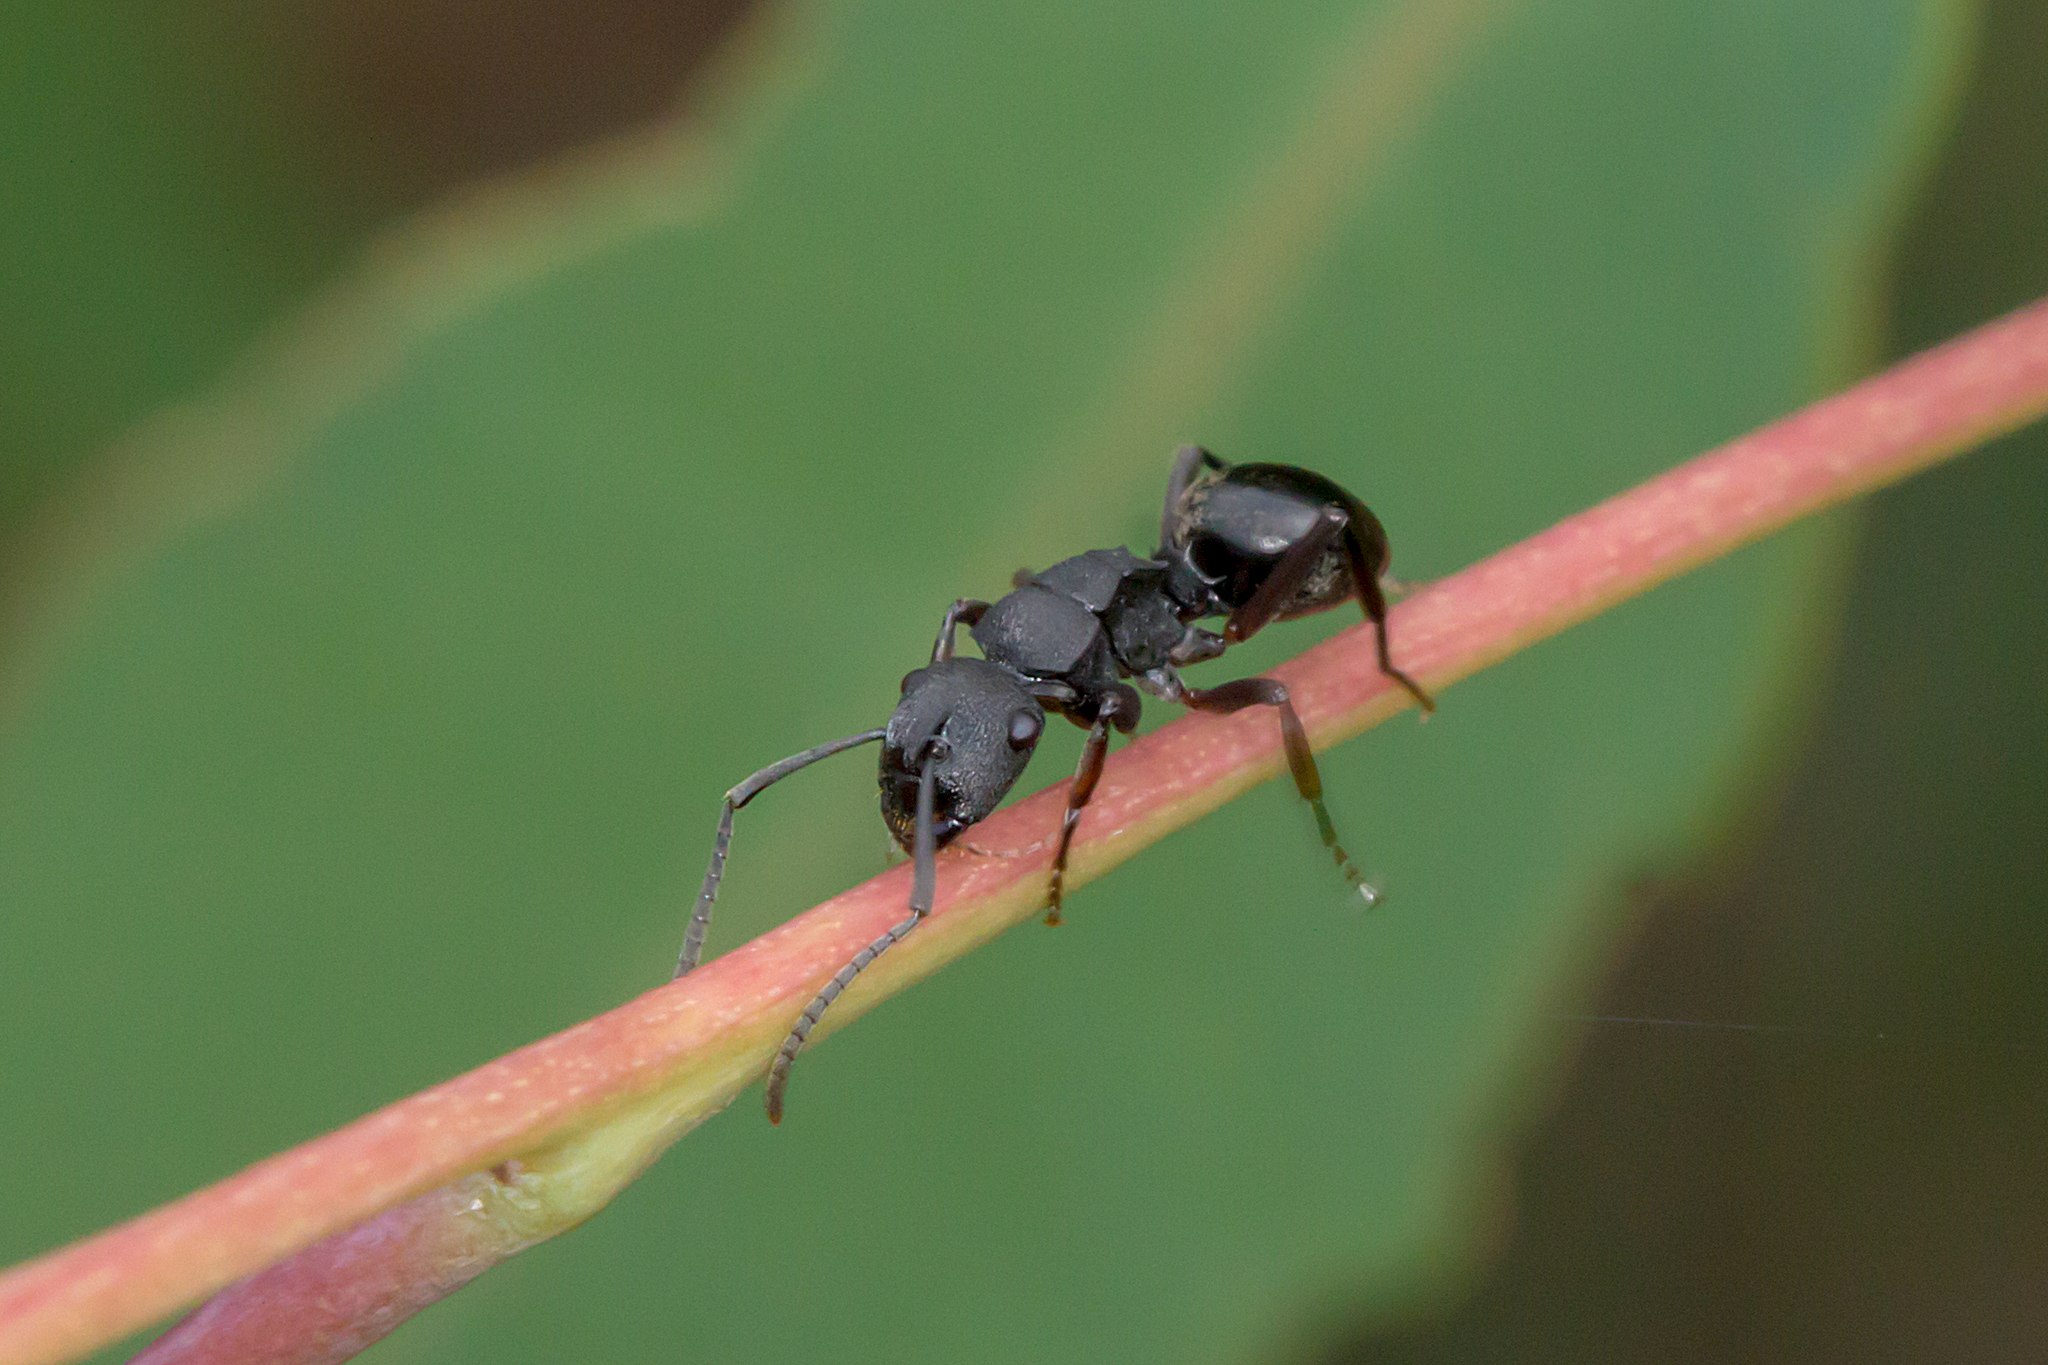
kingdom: Animalia
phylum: Arthropoda
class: Insecta
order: Hymenoptera
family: Formicidae
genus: Polyrhachis
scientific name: Polyrhachis phryne
